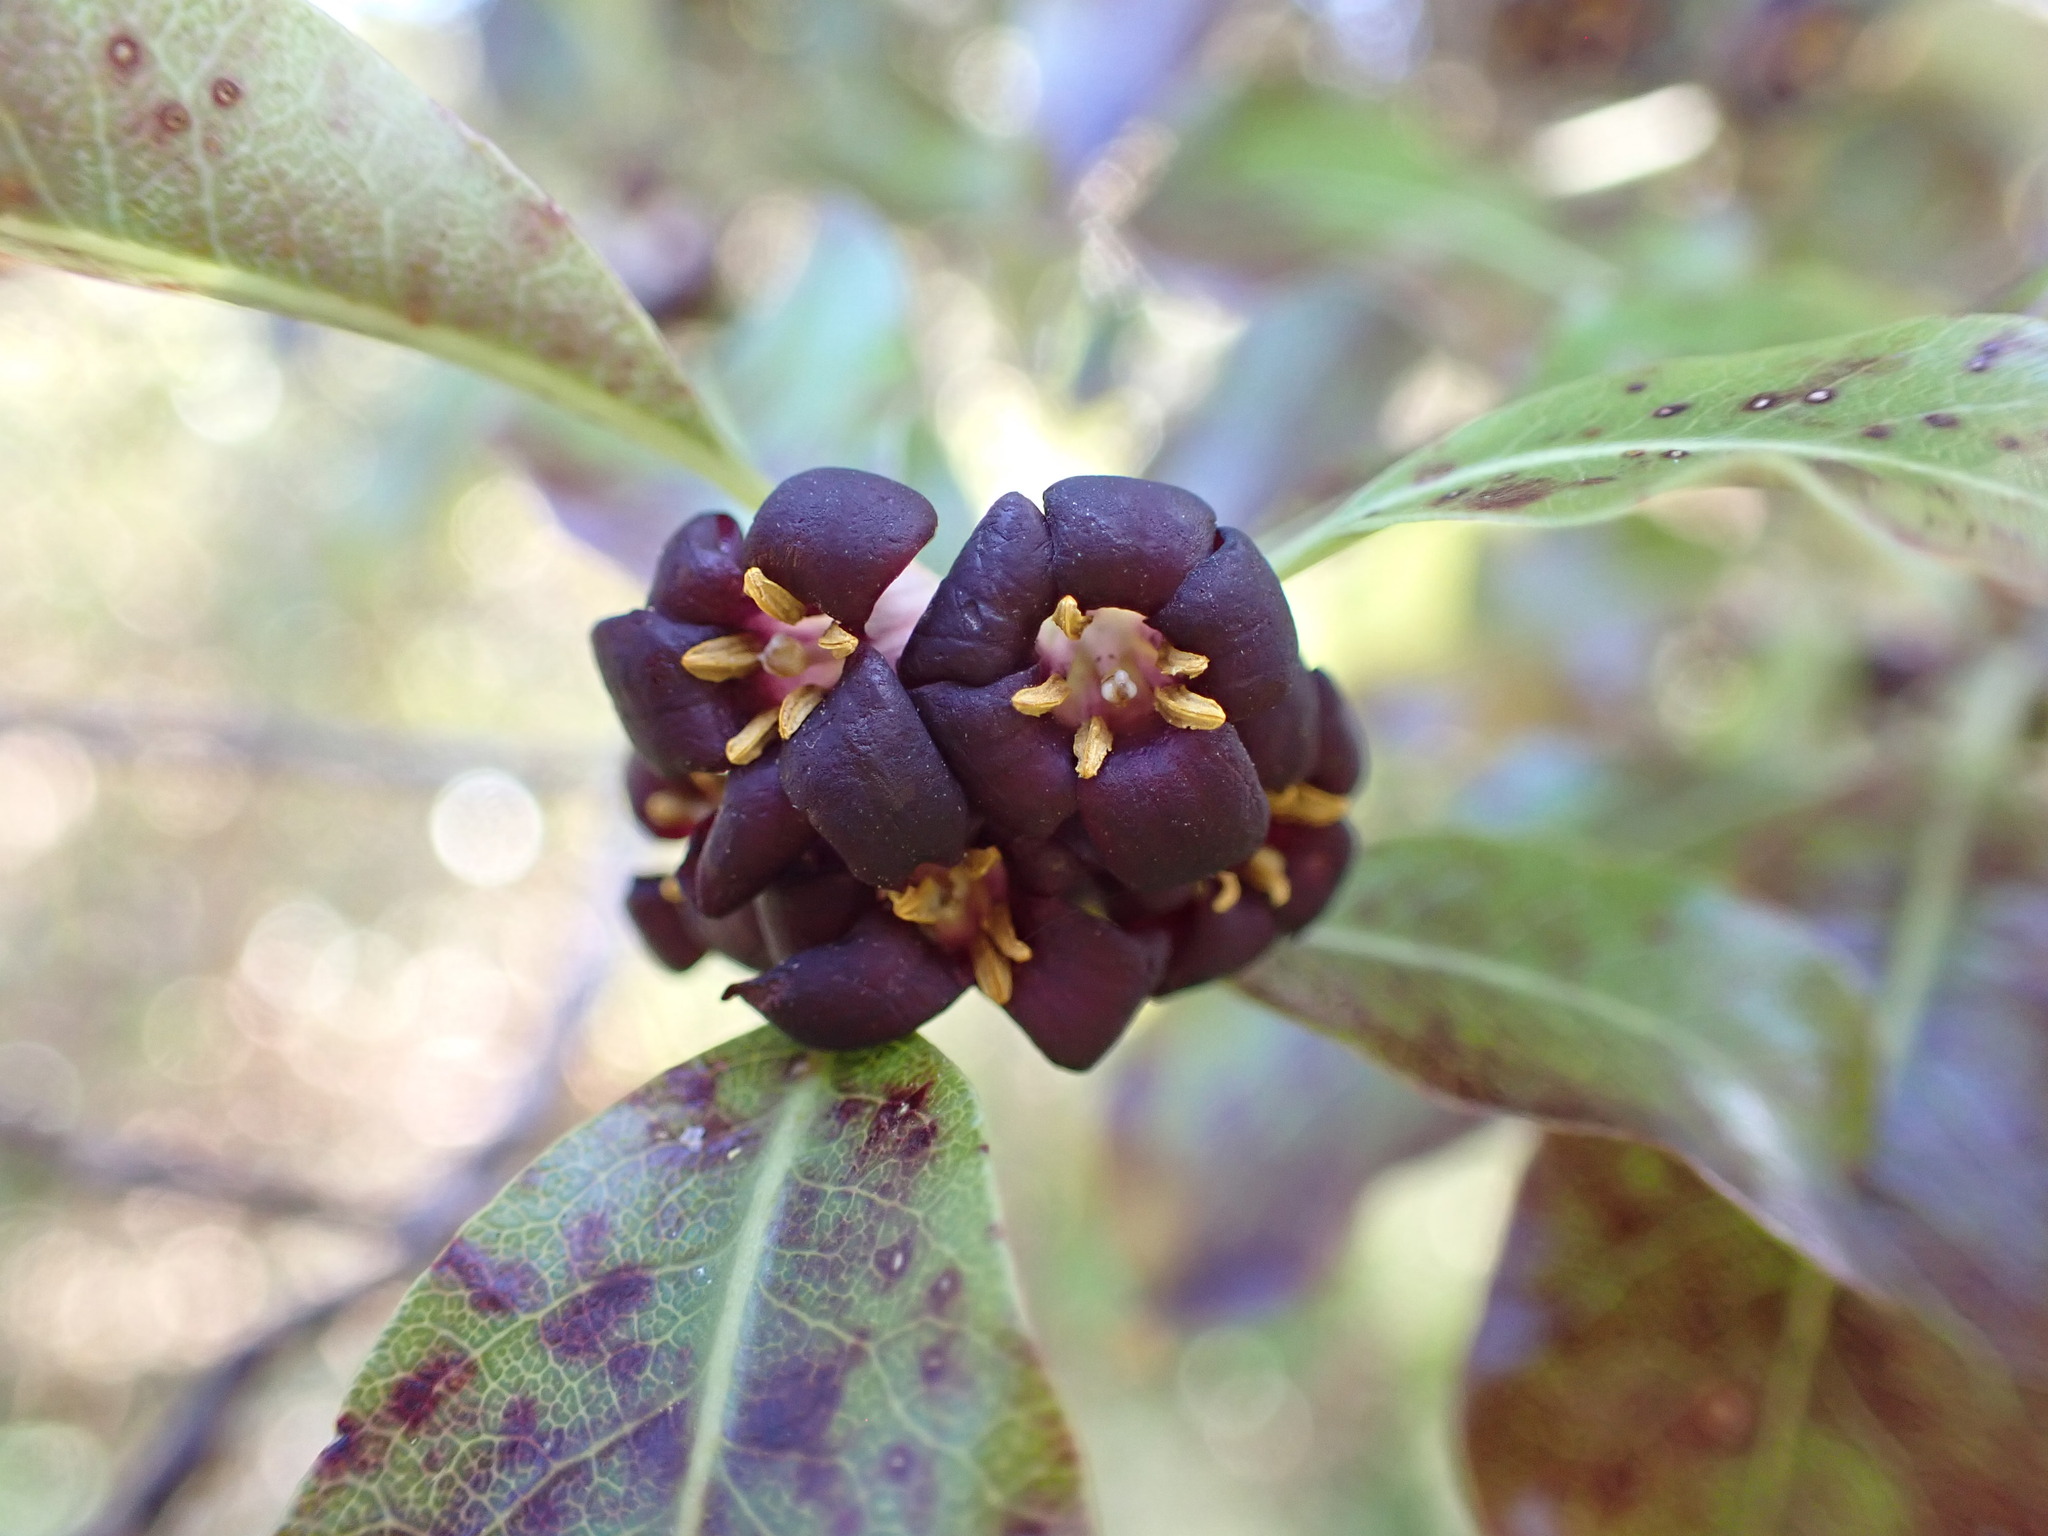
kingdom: Plantae
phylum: Tracheophyta
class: Magnoliopsida
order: Apiales
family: Pittosporaceae
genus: Pittosporum
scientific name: Pittosporum tenuifolium
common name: Kohuhu
